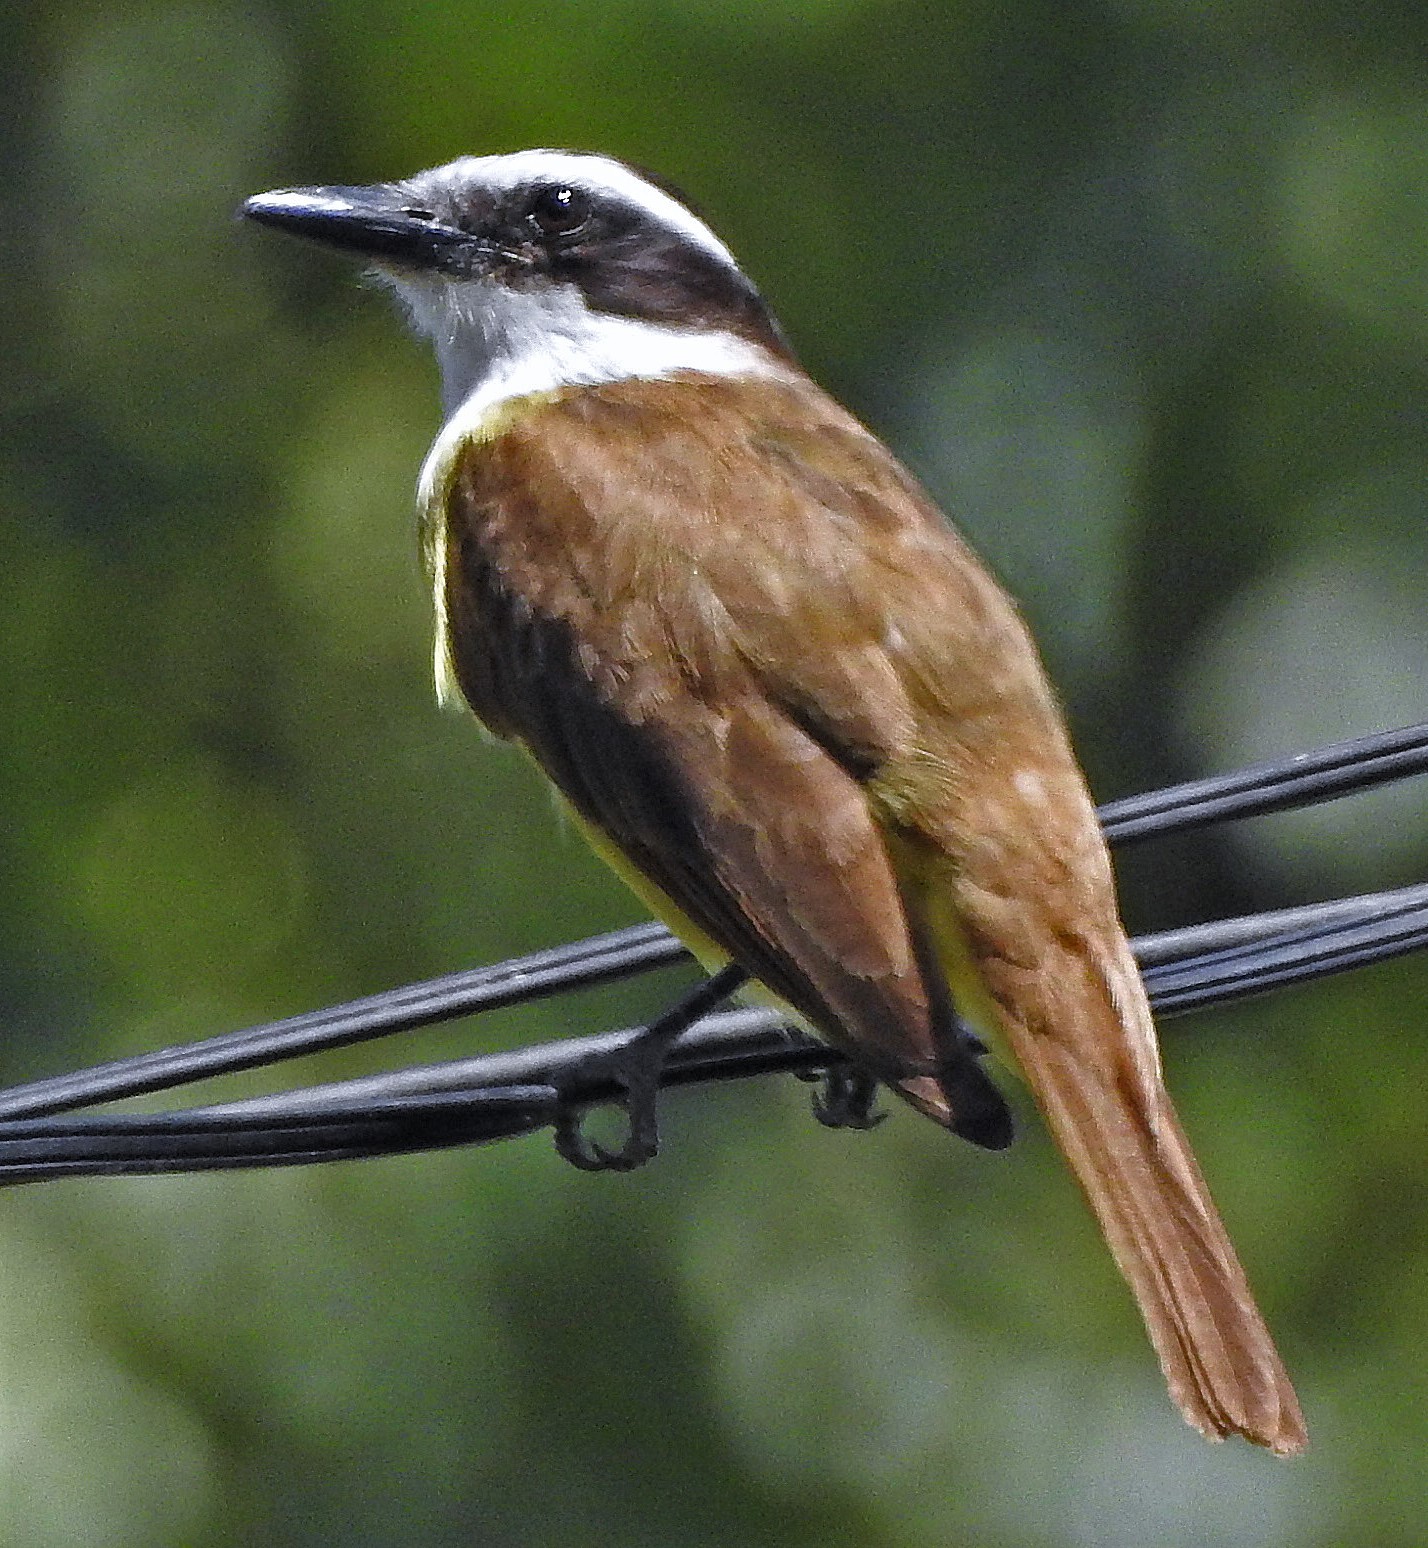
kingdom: Animalia
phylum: Chordata
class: Aves
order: Passeriformes
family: Tyrannidae
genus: Pitangus
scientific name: Pitangus sulphuratus
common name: Great kiskadee
